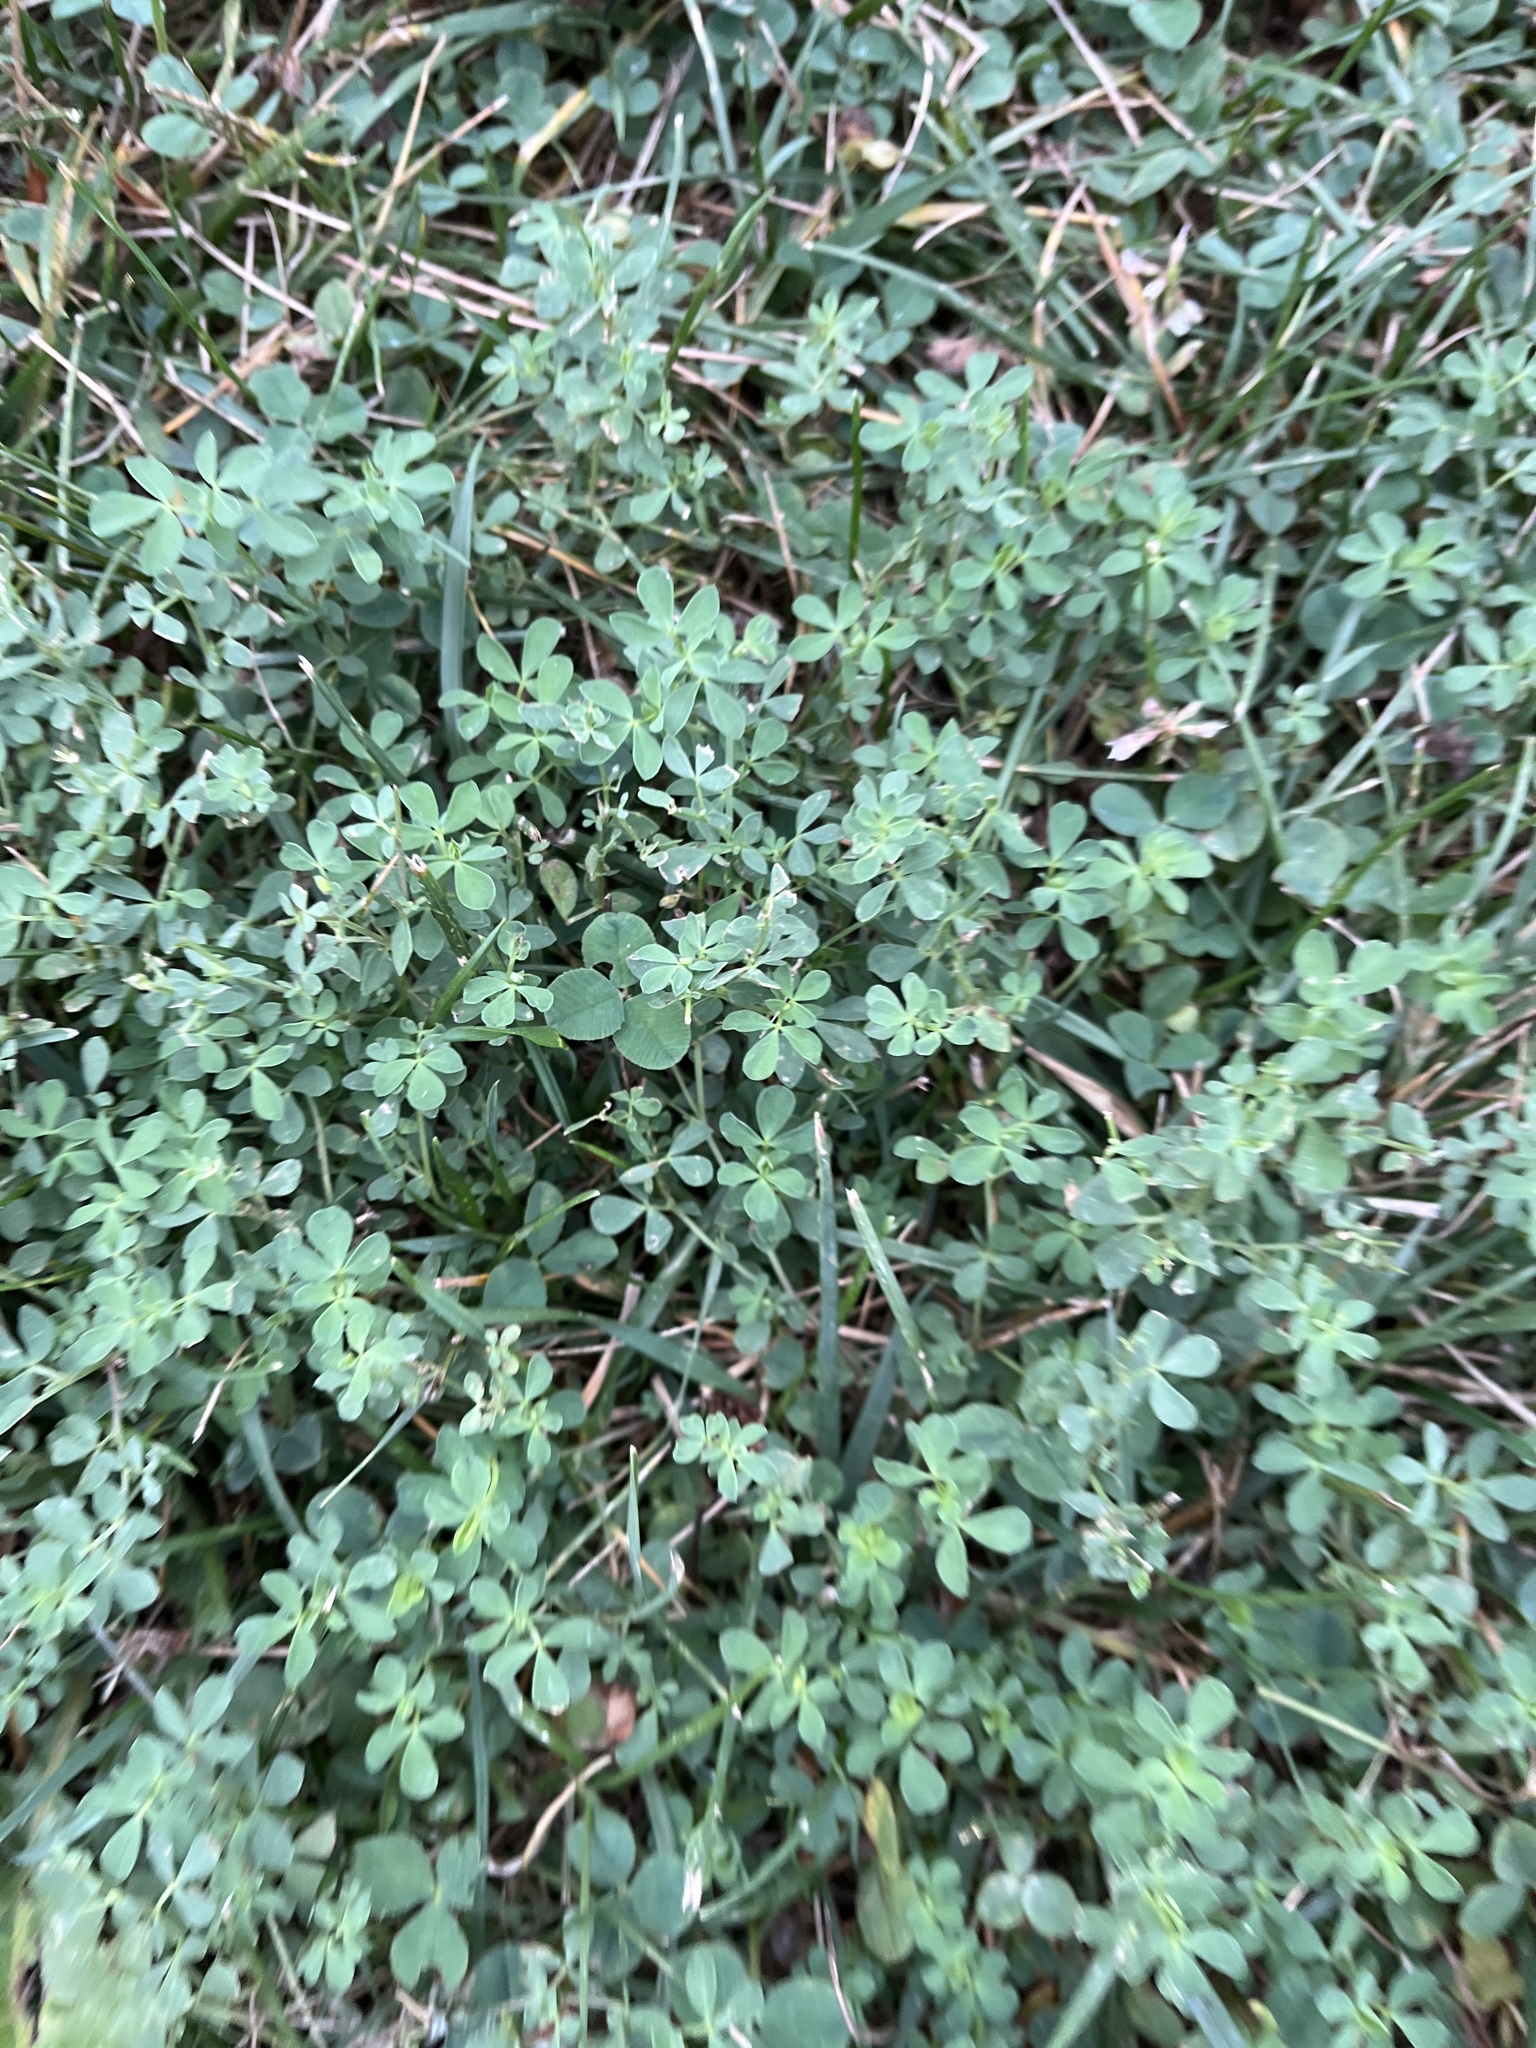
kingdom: Plantae
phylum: Tracheophyta
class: Magnoliopsida
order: Fabales
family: Fabaceae
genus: Lotus
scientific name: Lotus corniculatus
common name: Common bird's-foot-trefoil
